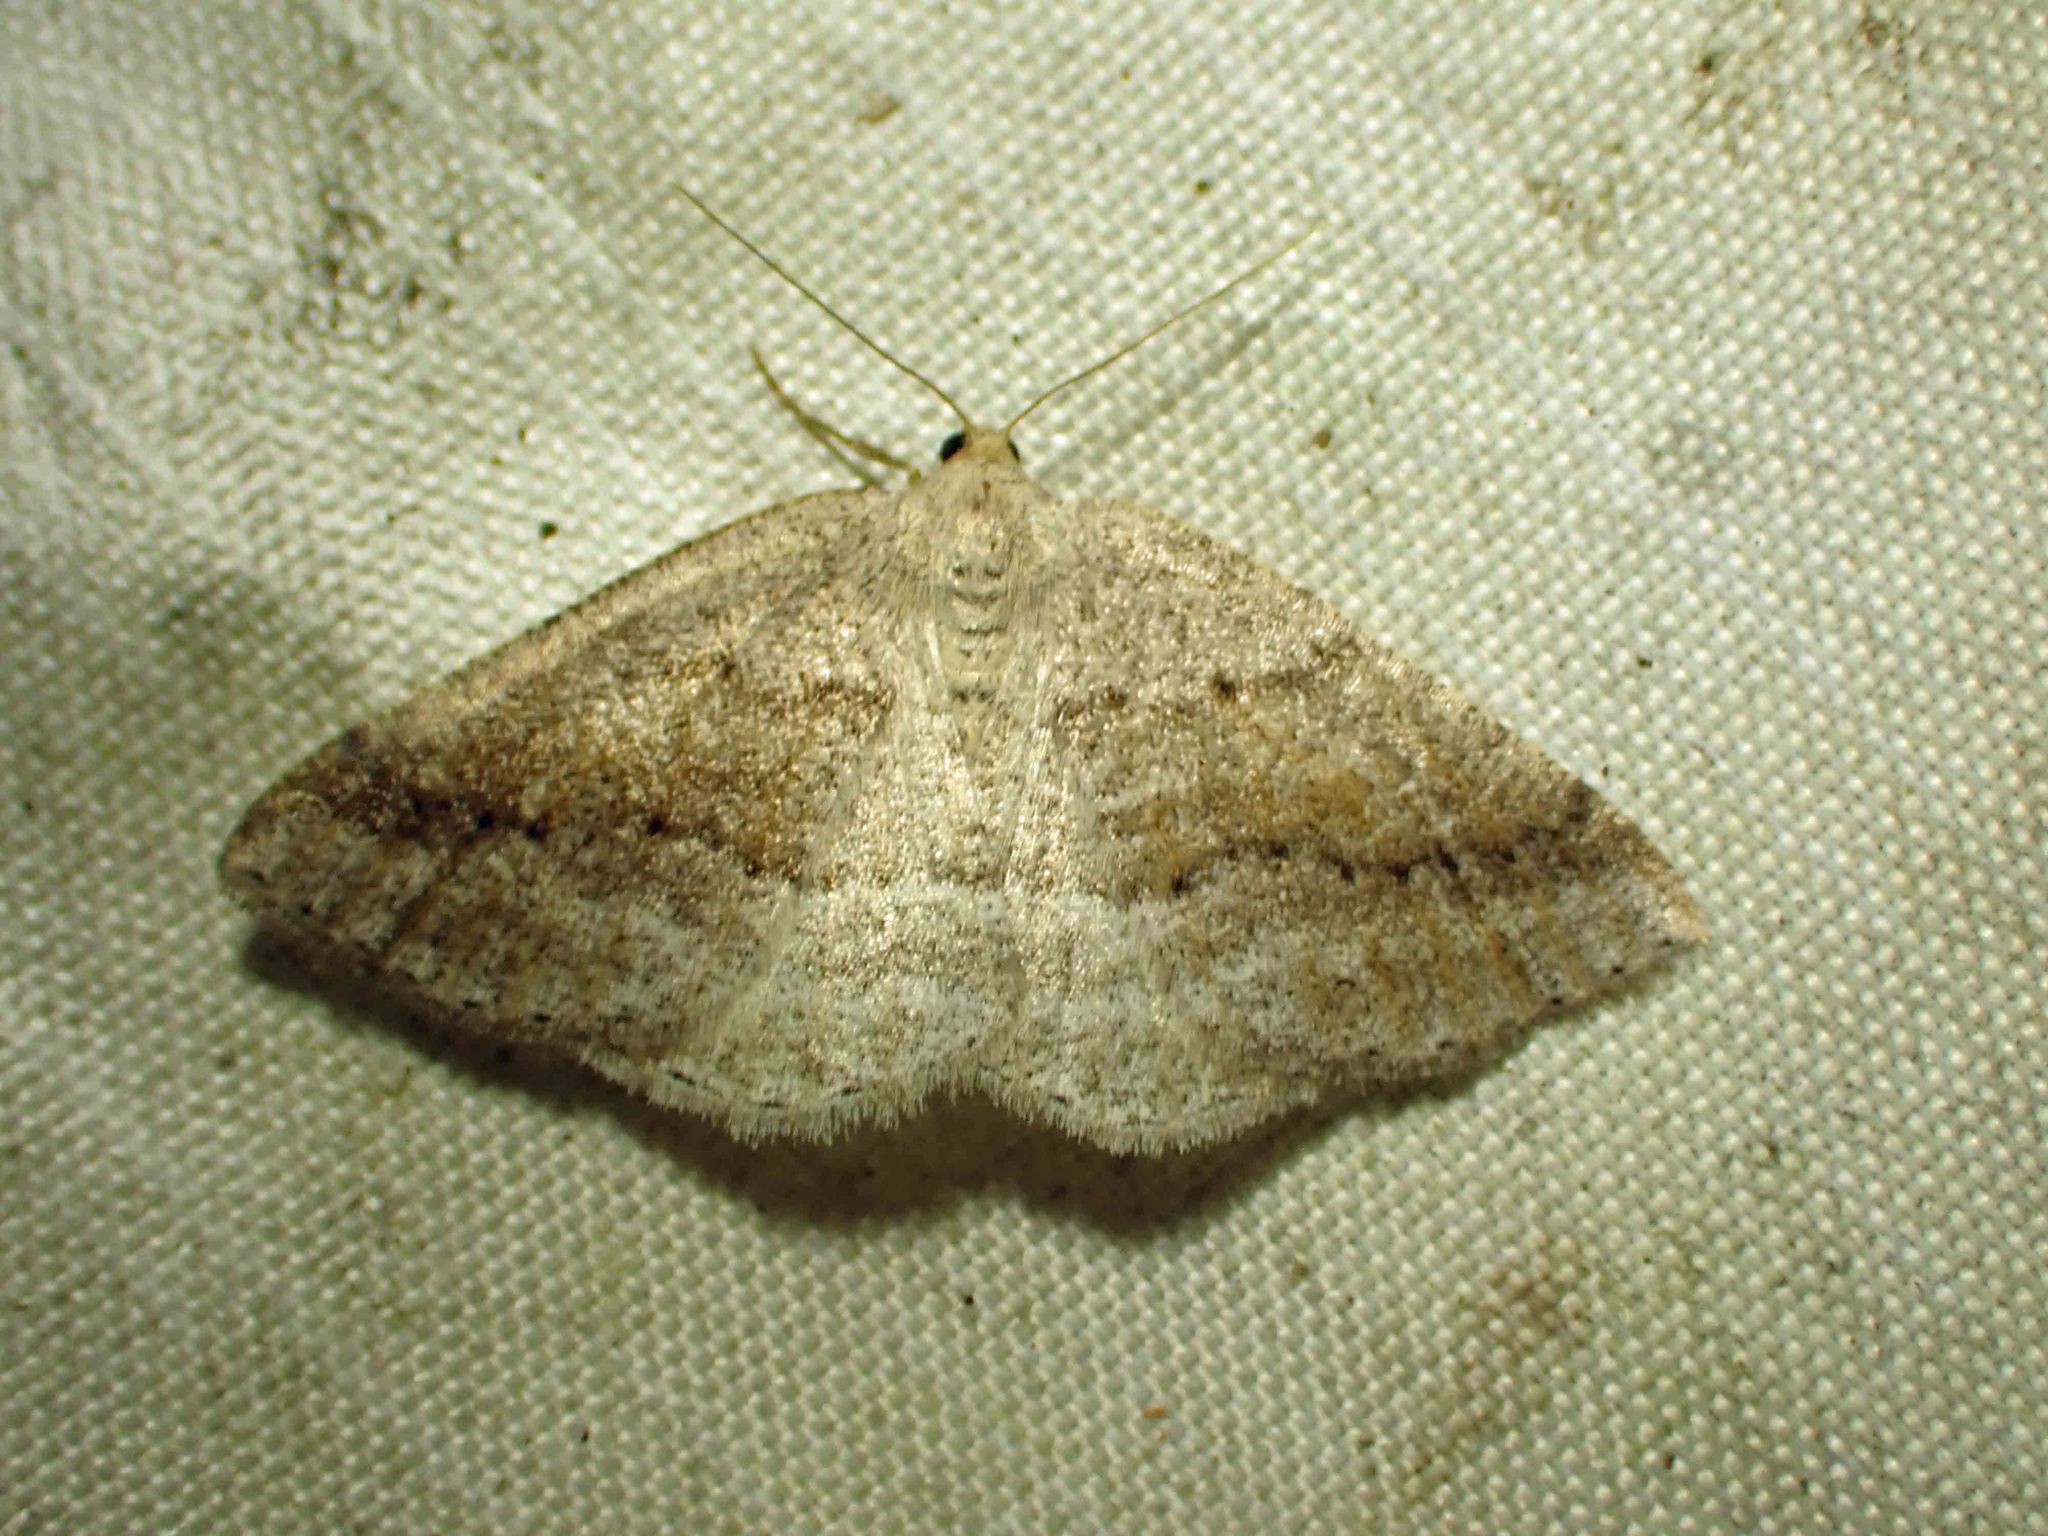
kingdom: Animalia
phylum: Arthropoda
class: Insecta
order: Lepidoptera
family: Geometridae
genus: Tacparia
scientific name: Tacparia detersata
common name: Pale alder moth
